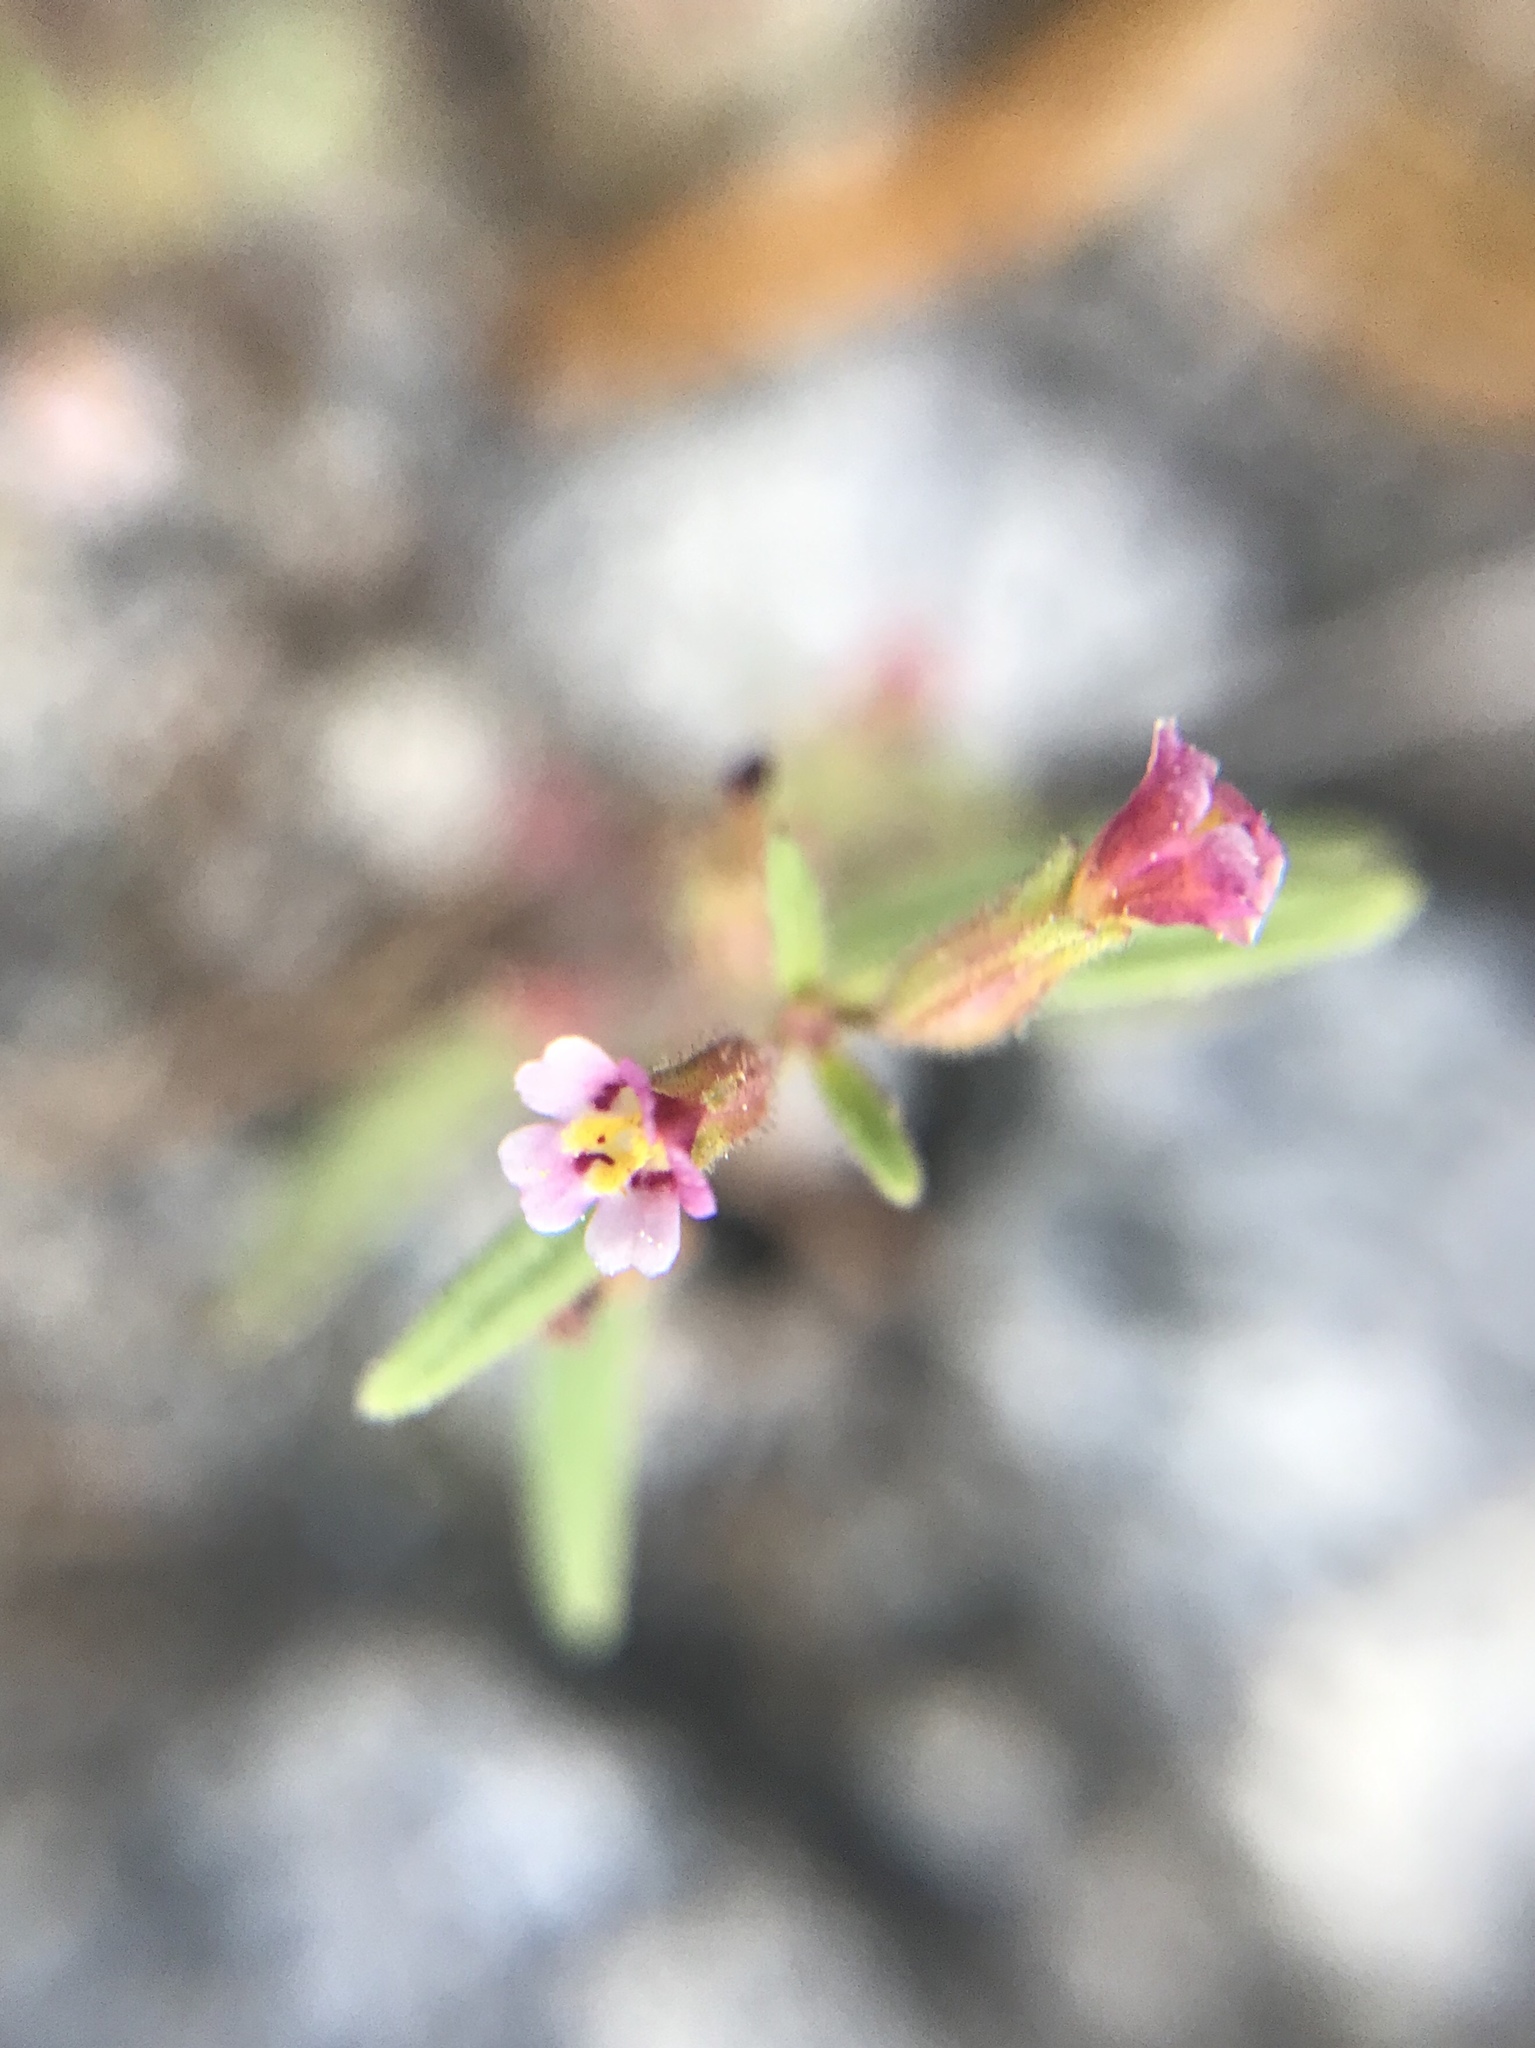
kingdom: Plantae
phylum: Tracheophyta
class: Magnoliopsida
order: Lamiales
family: Phrymaceae
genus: Erythranthe
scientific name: Erythranthe breweri
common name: Brewer's monkeyflower
